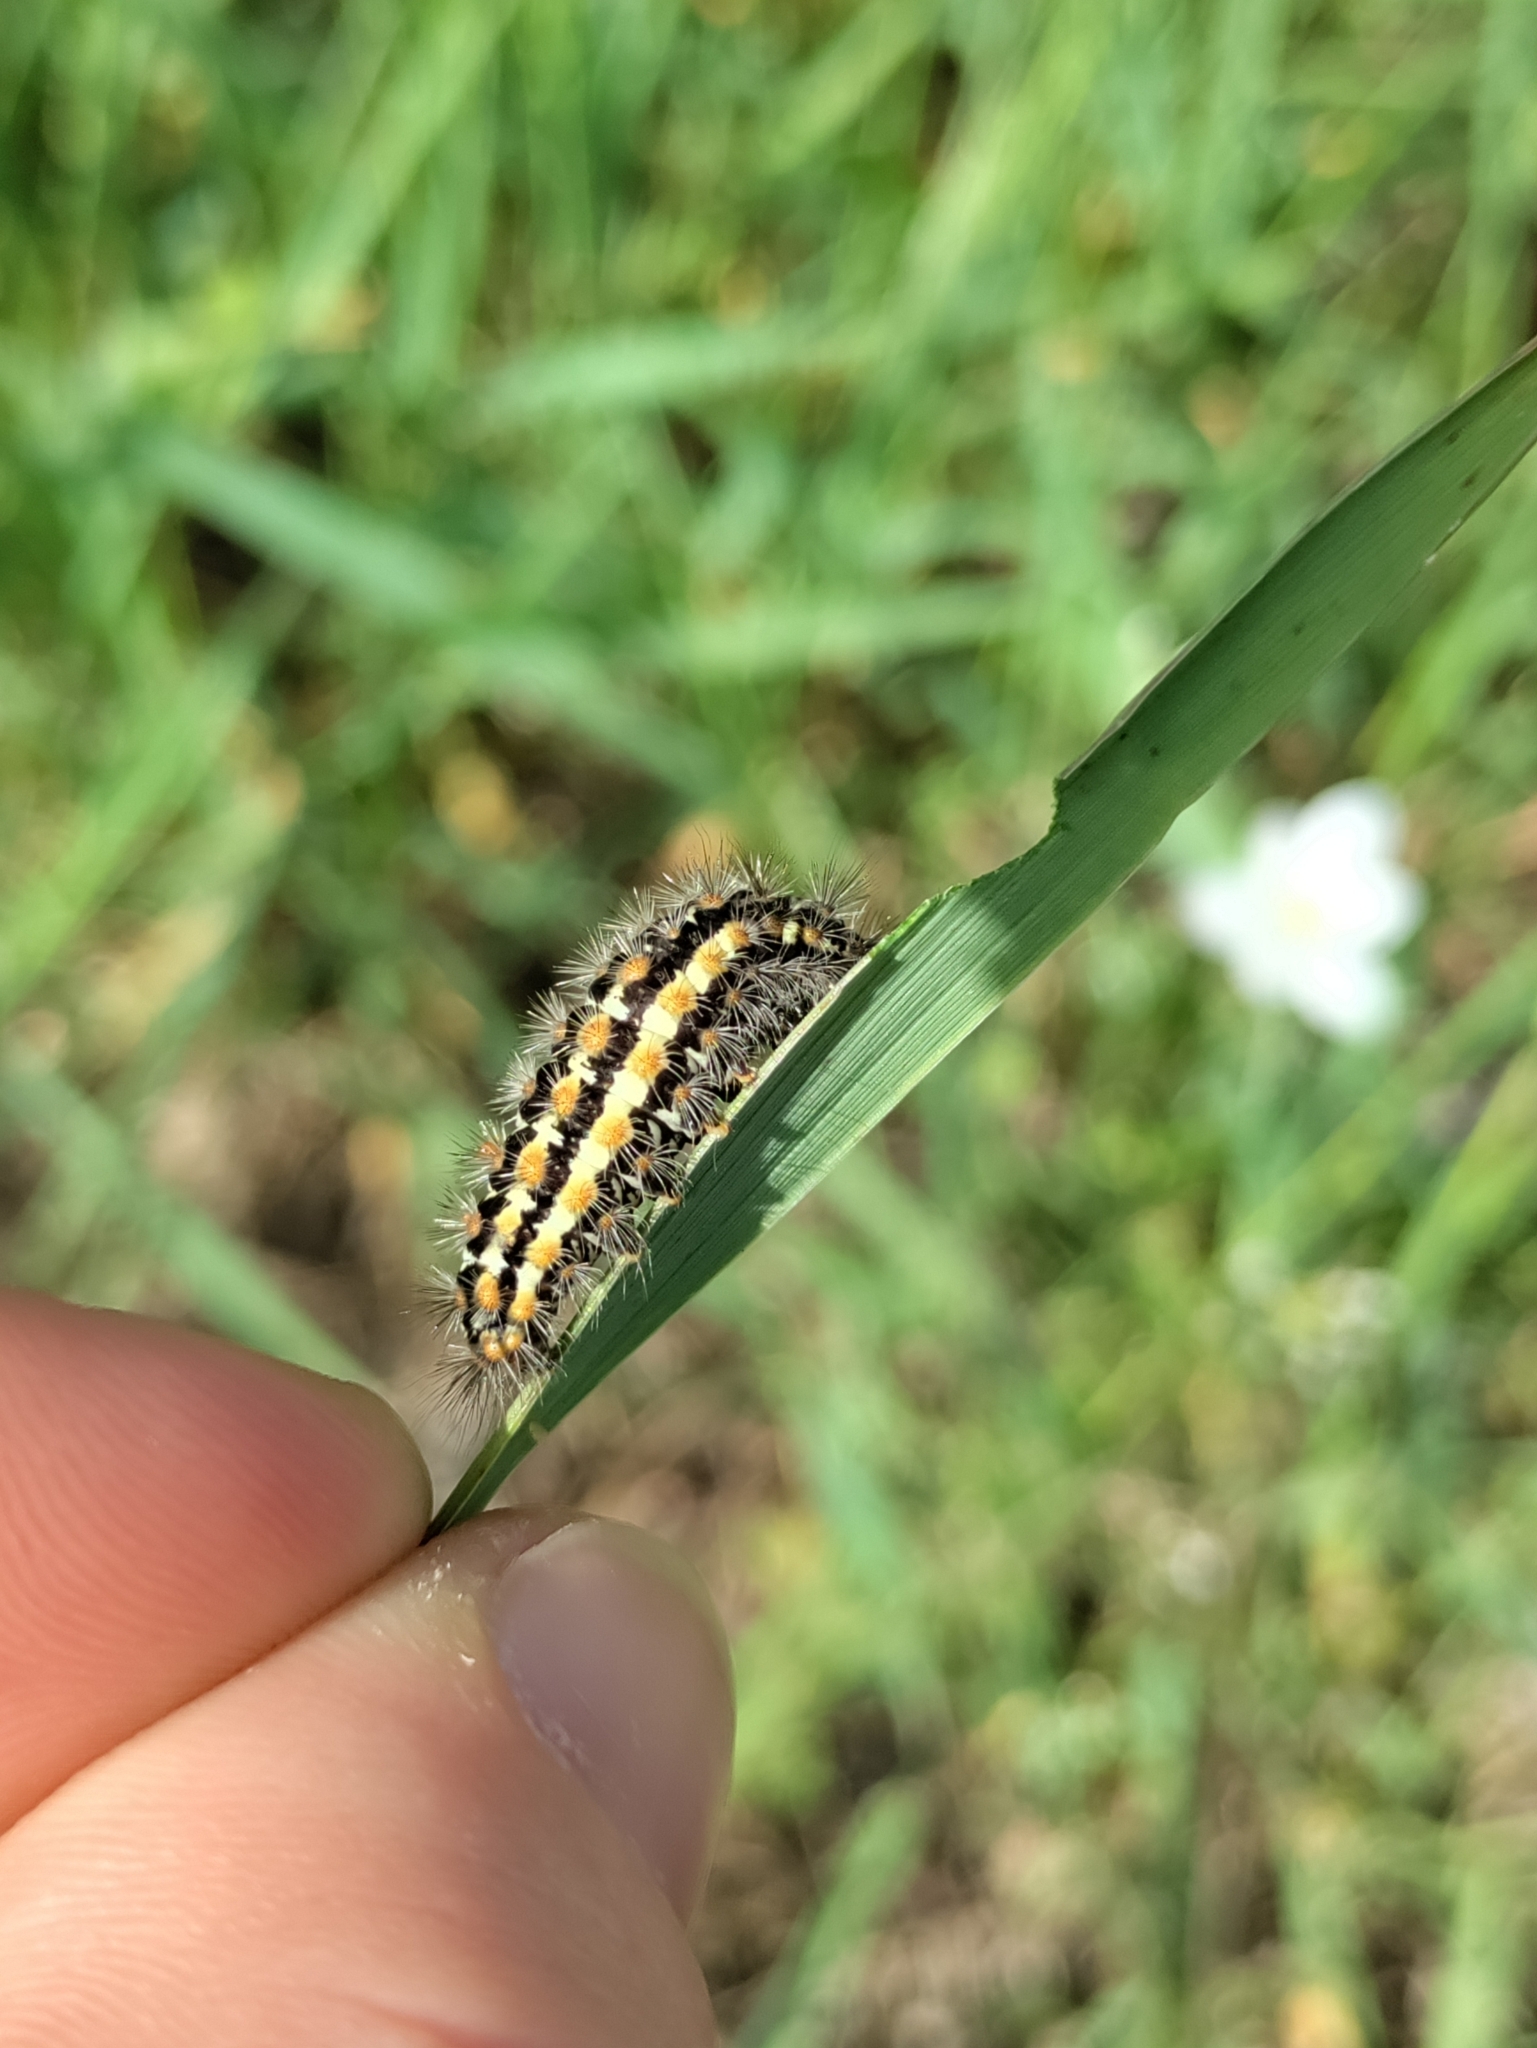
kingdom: Animalia
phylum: Arthropoda
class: Insecta
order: Lepidoptera
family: Erebidae
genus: Penthophera
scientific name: Penthophera morio
